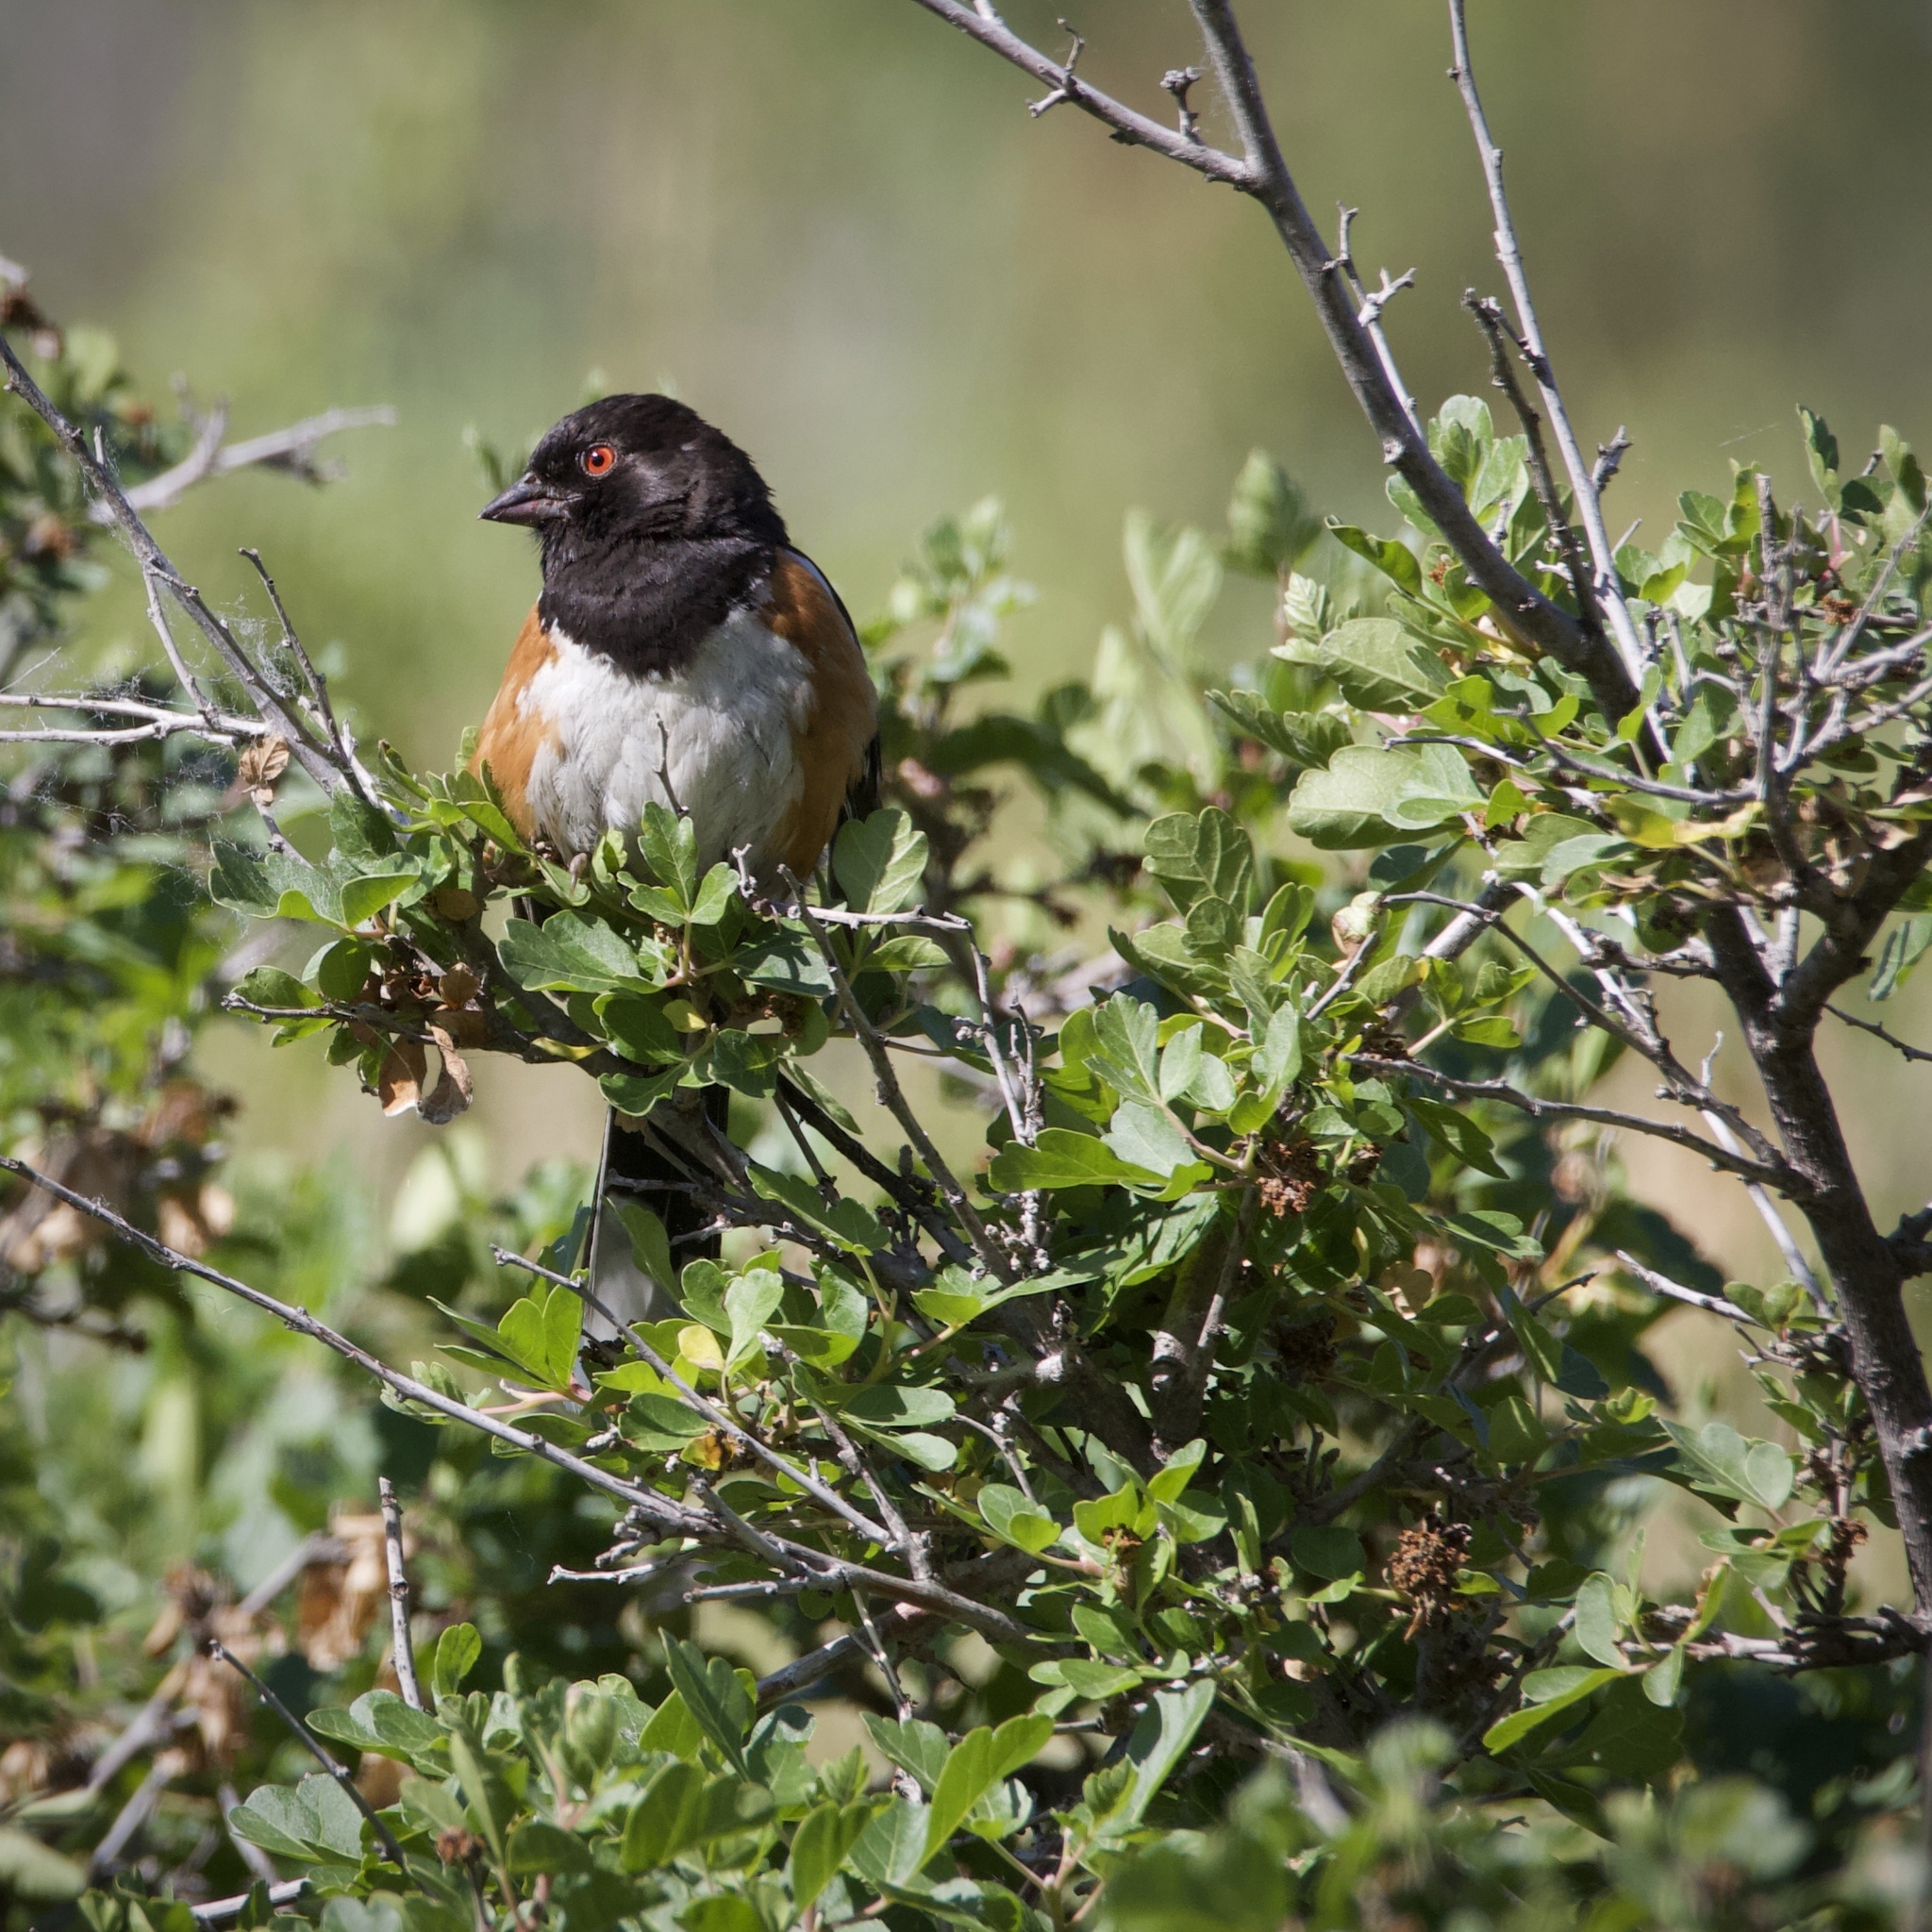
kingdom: Animalia
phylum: Chordata
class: Aves
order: Passeriformes
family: Passerellidae
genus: Pipilo
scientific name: Pipilo maculatus
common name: Spotted towhee
